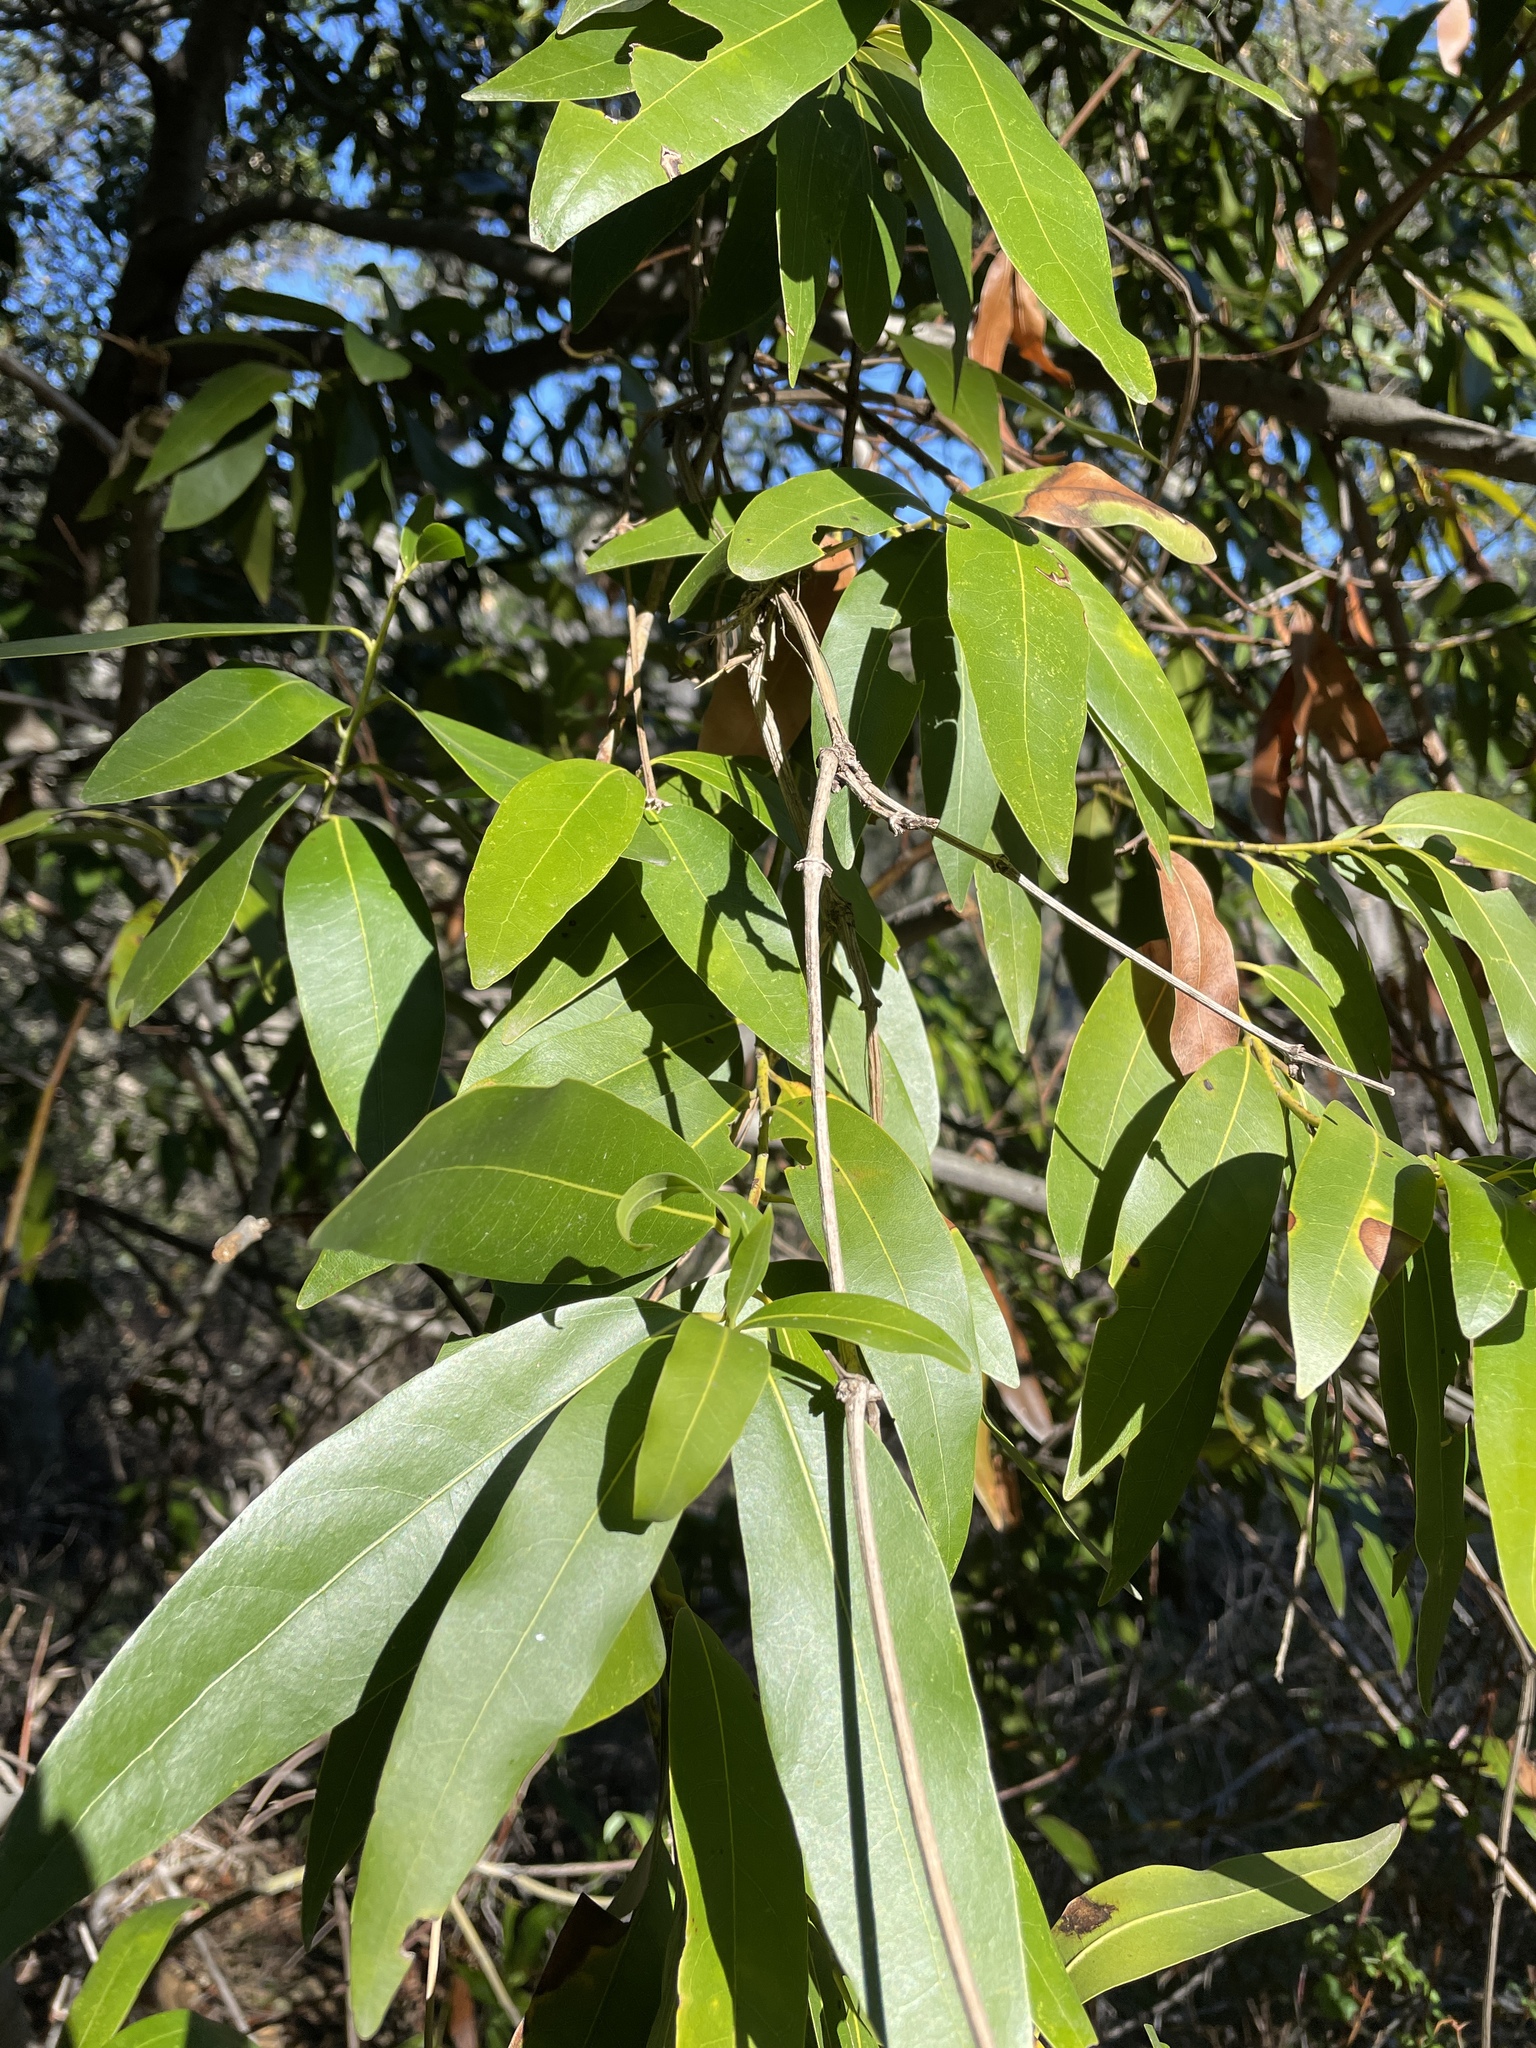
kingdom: Plantae
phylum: Tracheophyta
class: Magnoliopsida
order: Laurales
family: Lauraceae
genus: Umbellularia
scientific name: Umbellularia californica
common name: California bay
